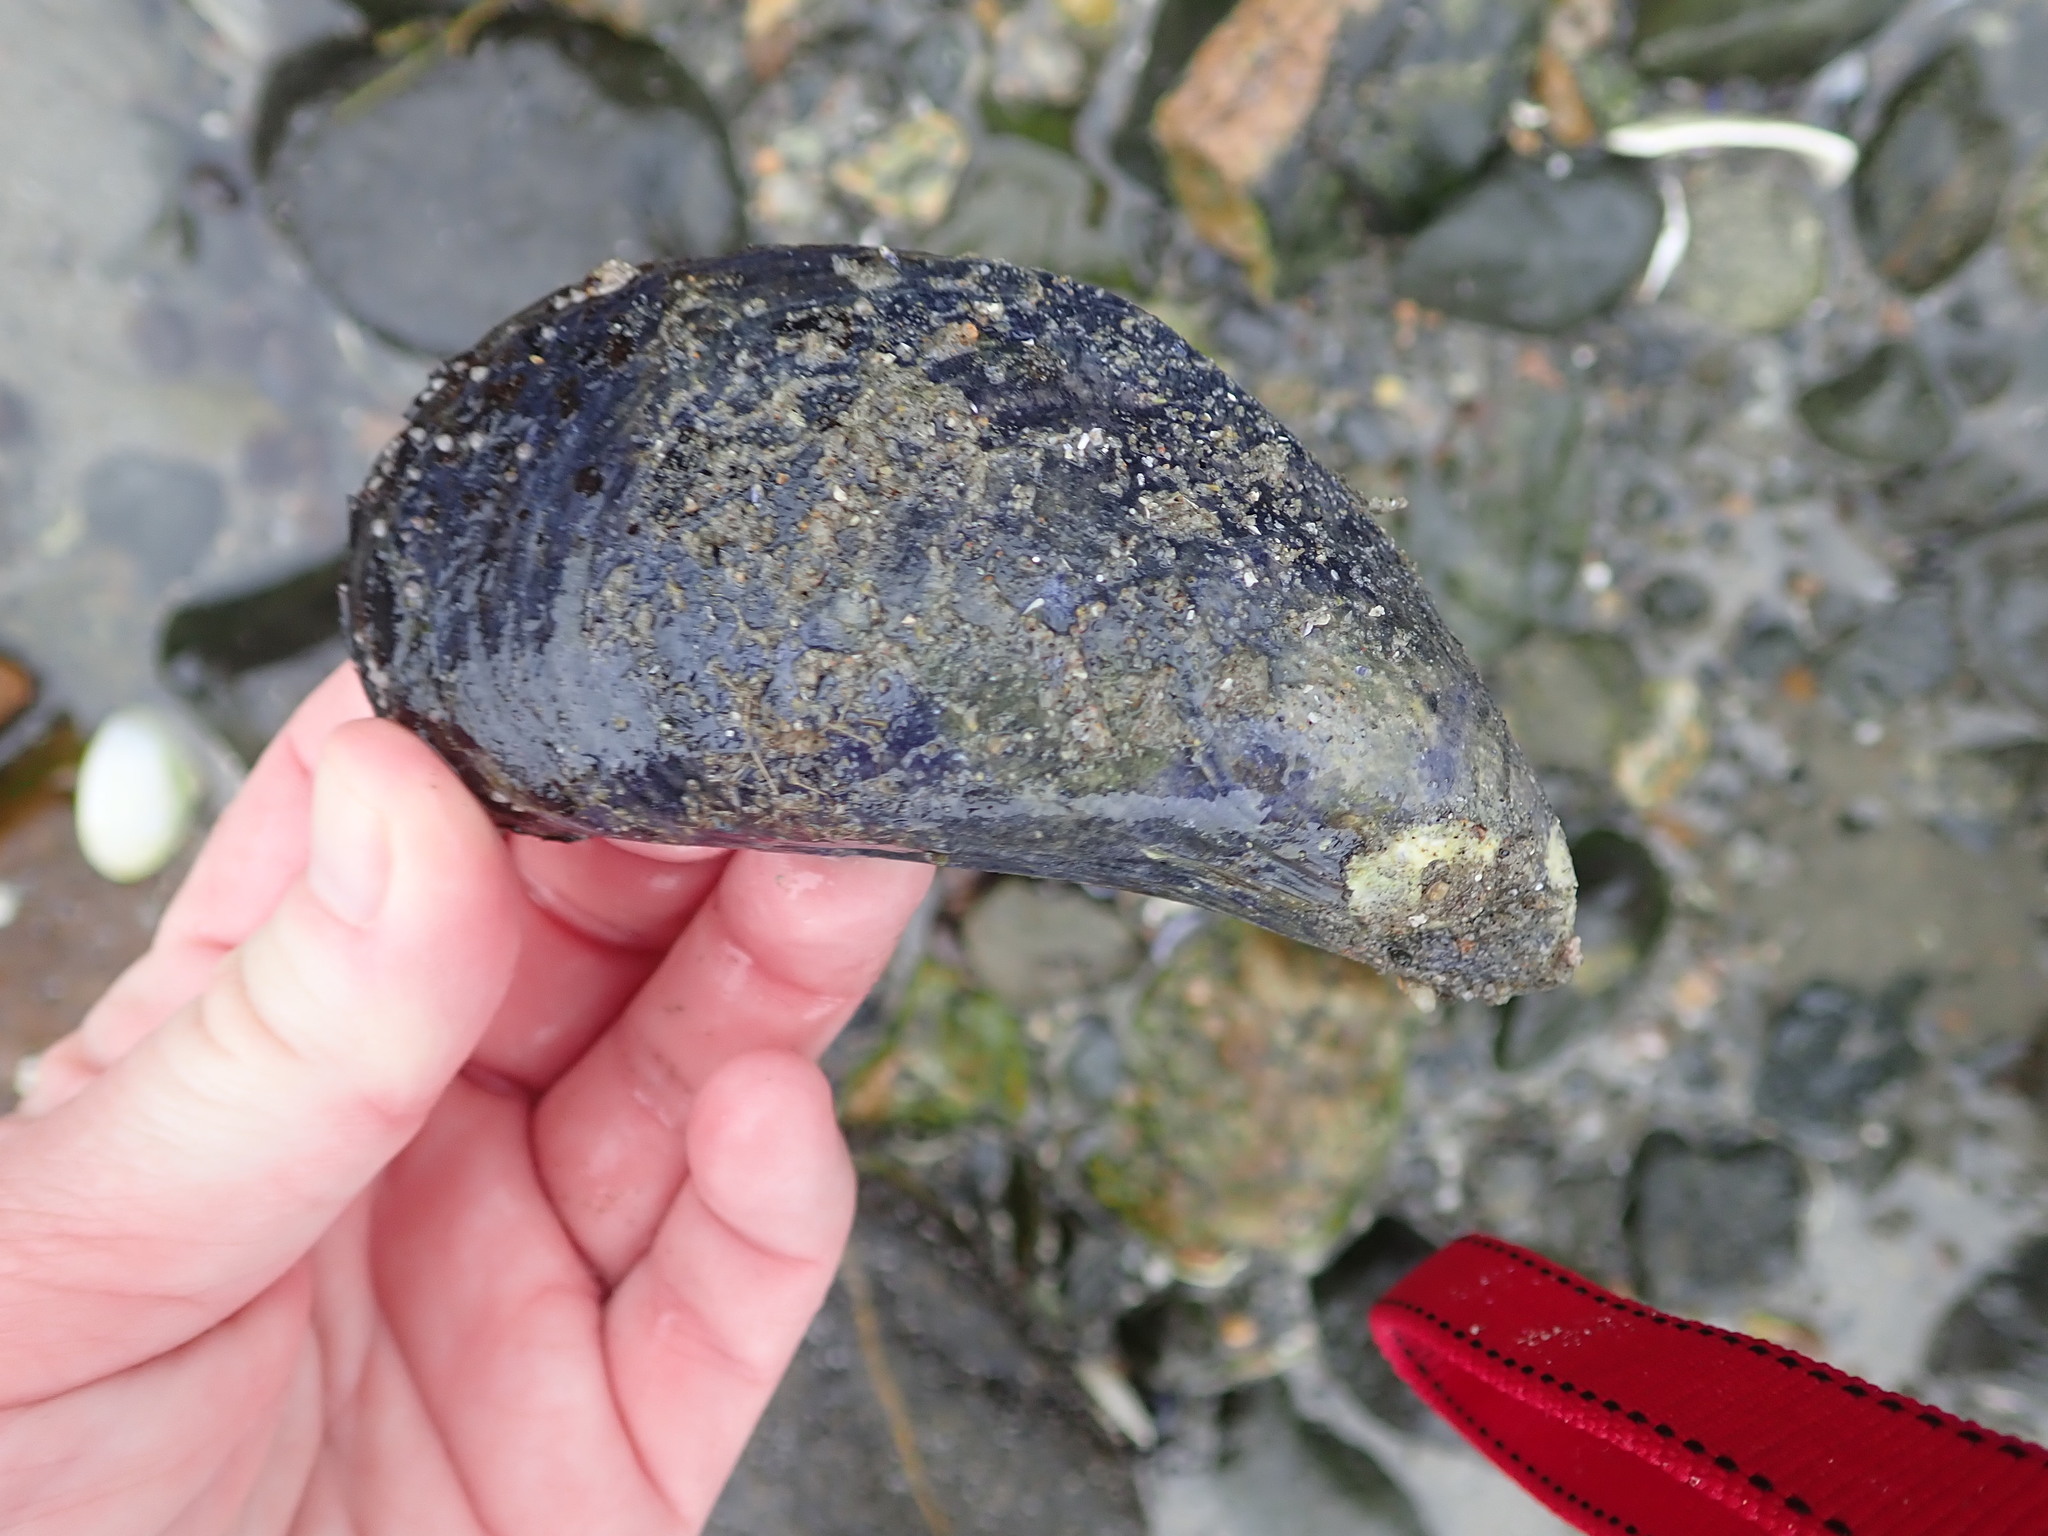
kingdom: Animalia
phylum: Mollusca
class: Bivalvia
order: Mytilida
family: Mytilidae
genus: Mytilus
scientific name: Mytilus edulis
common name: Blue mussel
